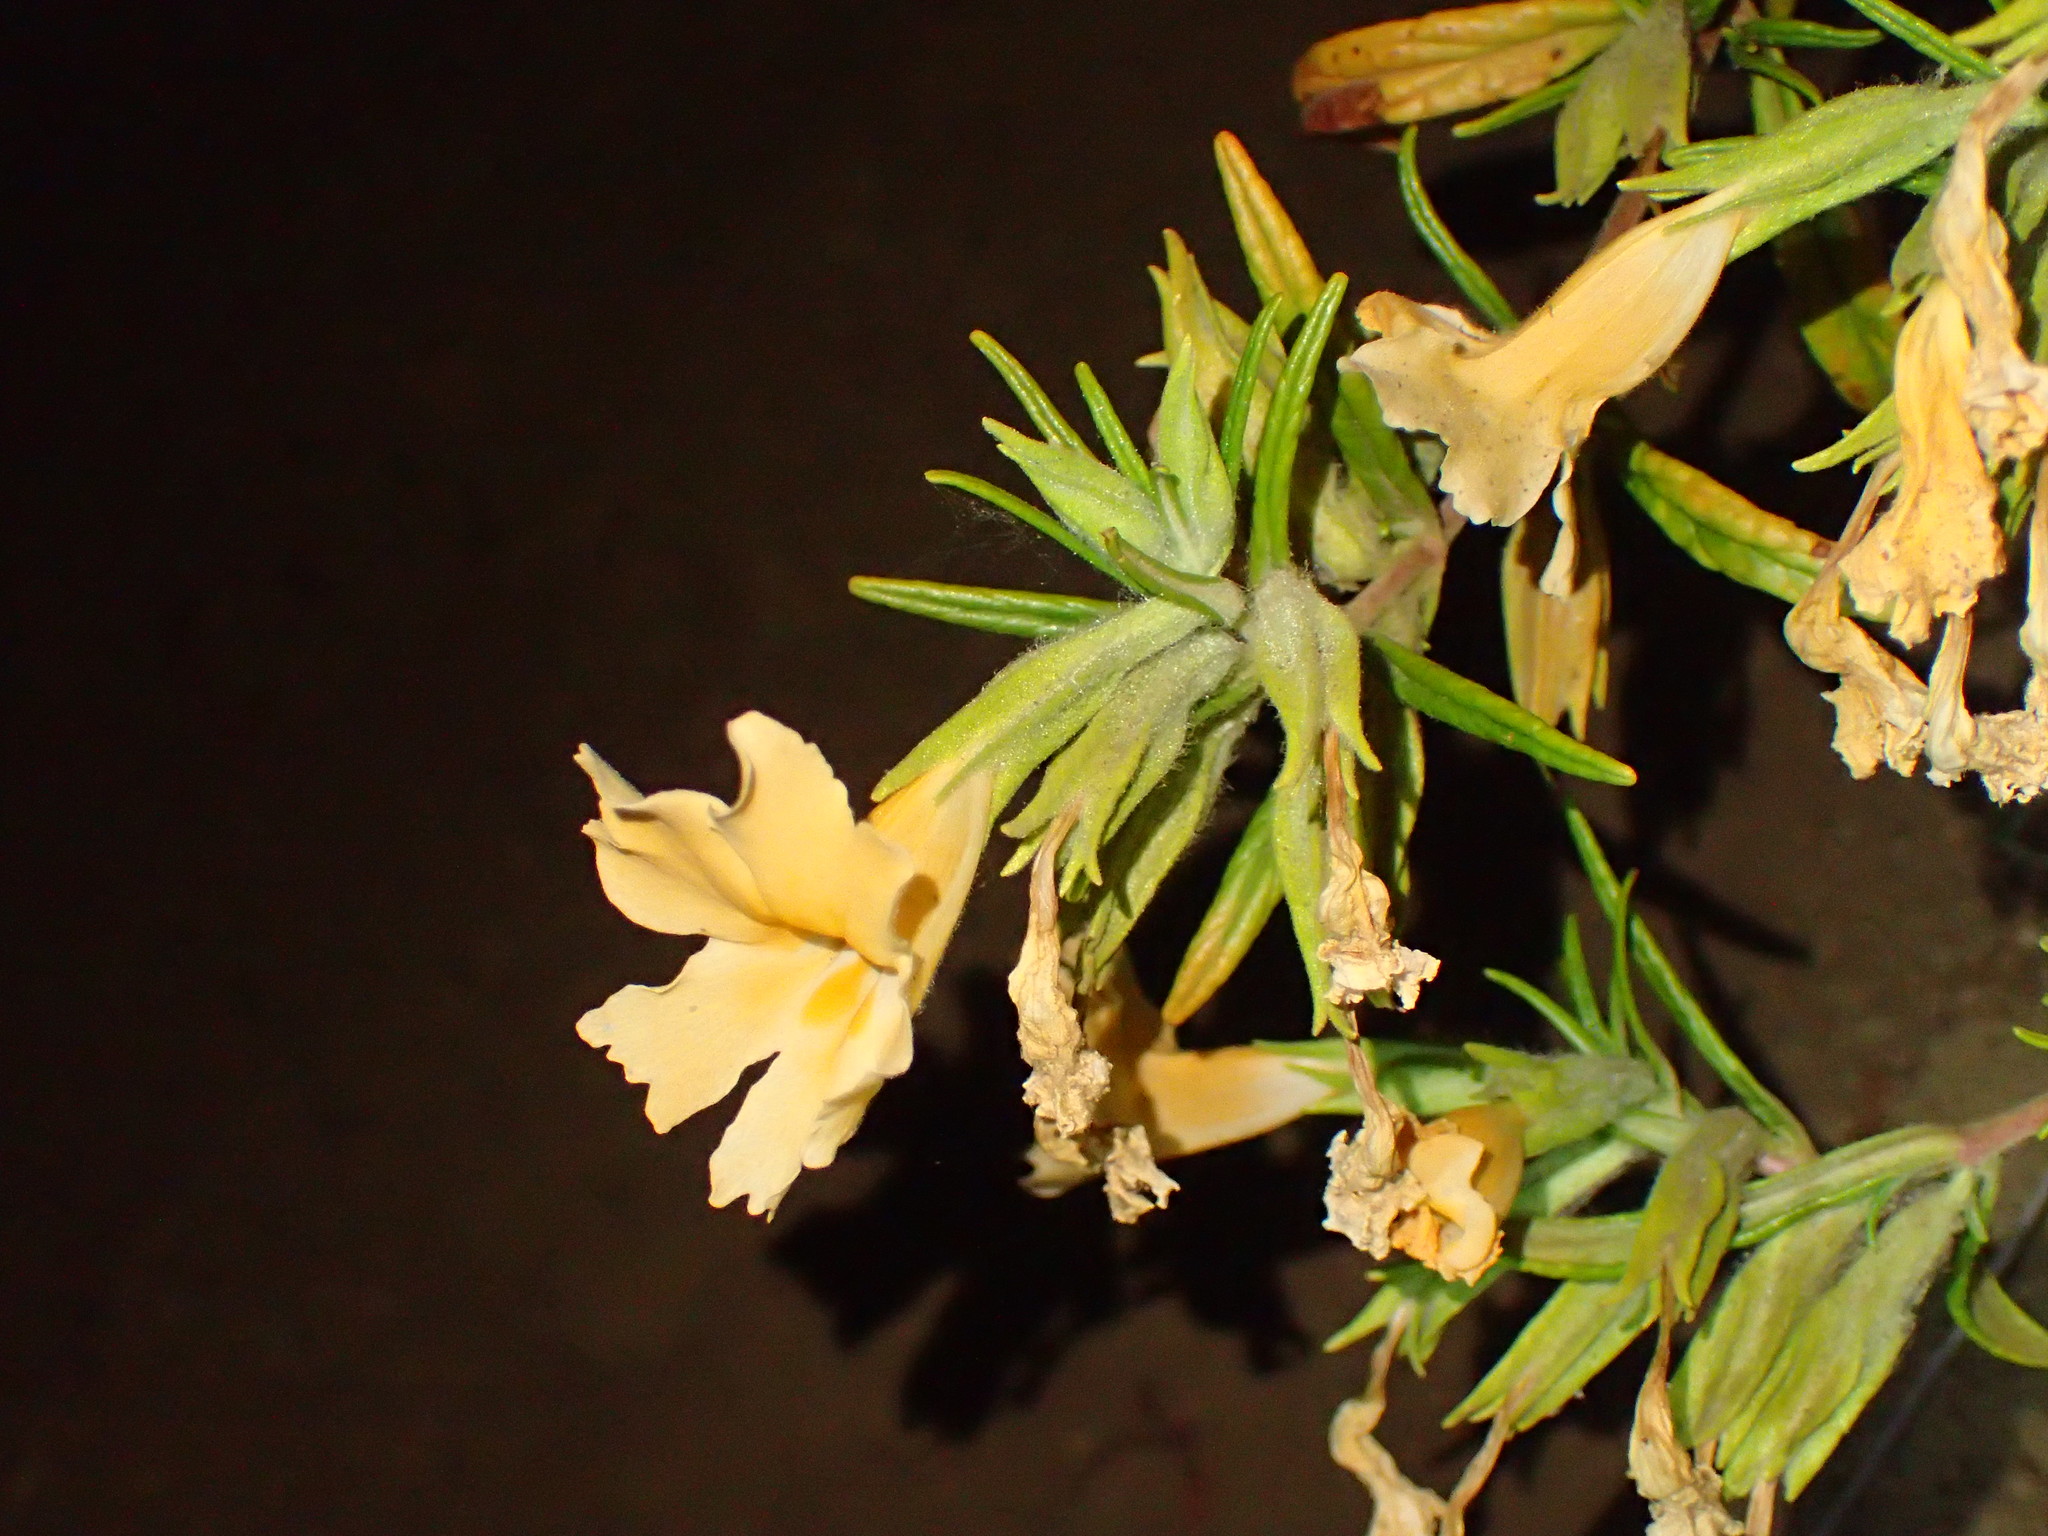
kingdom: Plantae
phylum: Tracheophyta
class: Magnoliopsida
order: Lamiales
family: Phrymaceae
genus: Diplacus
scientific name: Diplacus longiflorus
